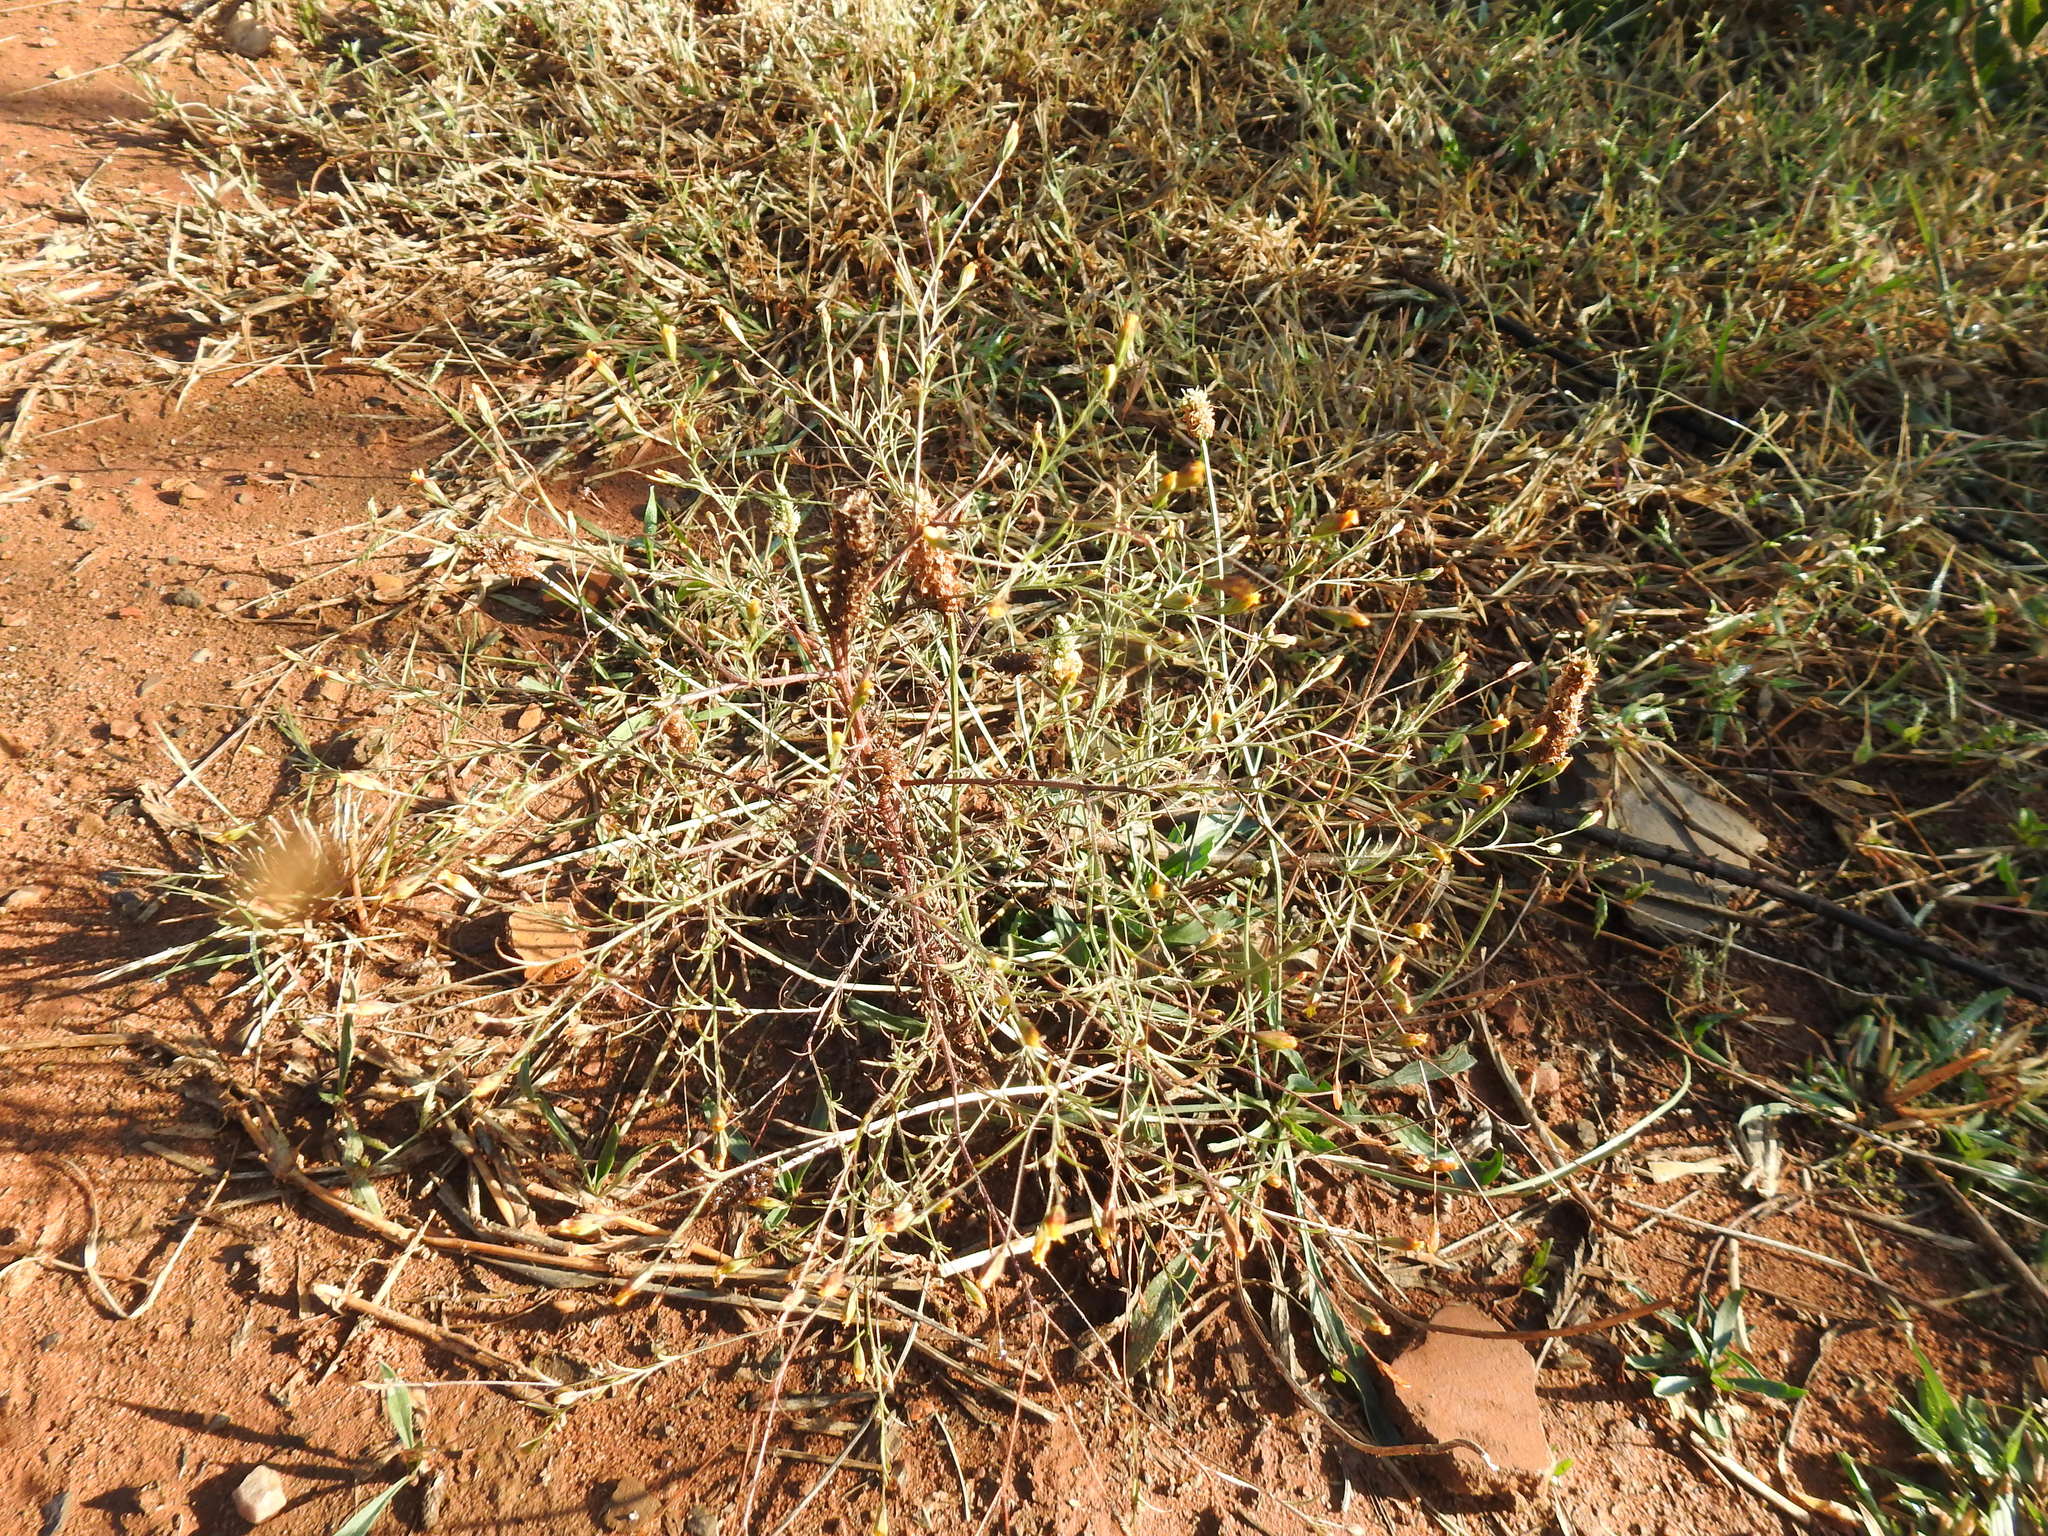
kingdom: Plantae
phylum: Tracheophyta
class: Magnoliopsida
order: Asterales
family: Asteraceae
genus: Schkuhria
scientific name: Schkuhria pinnata
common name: Dwarf marigold
